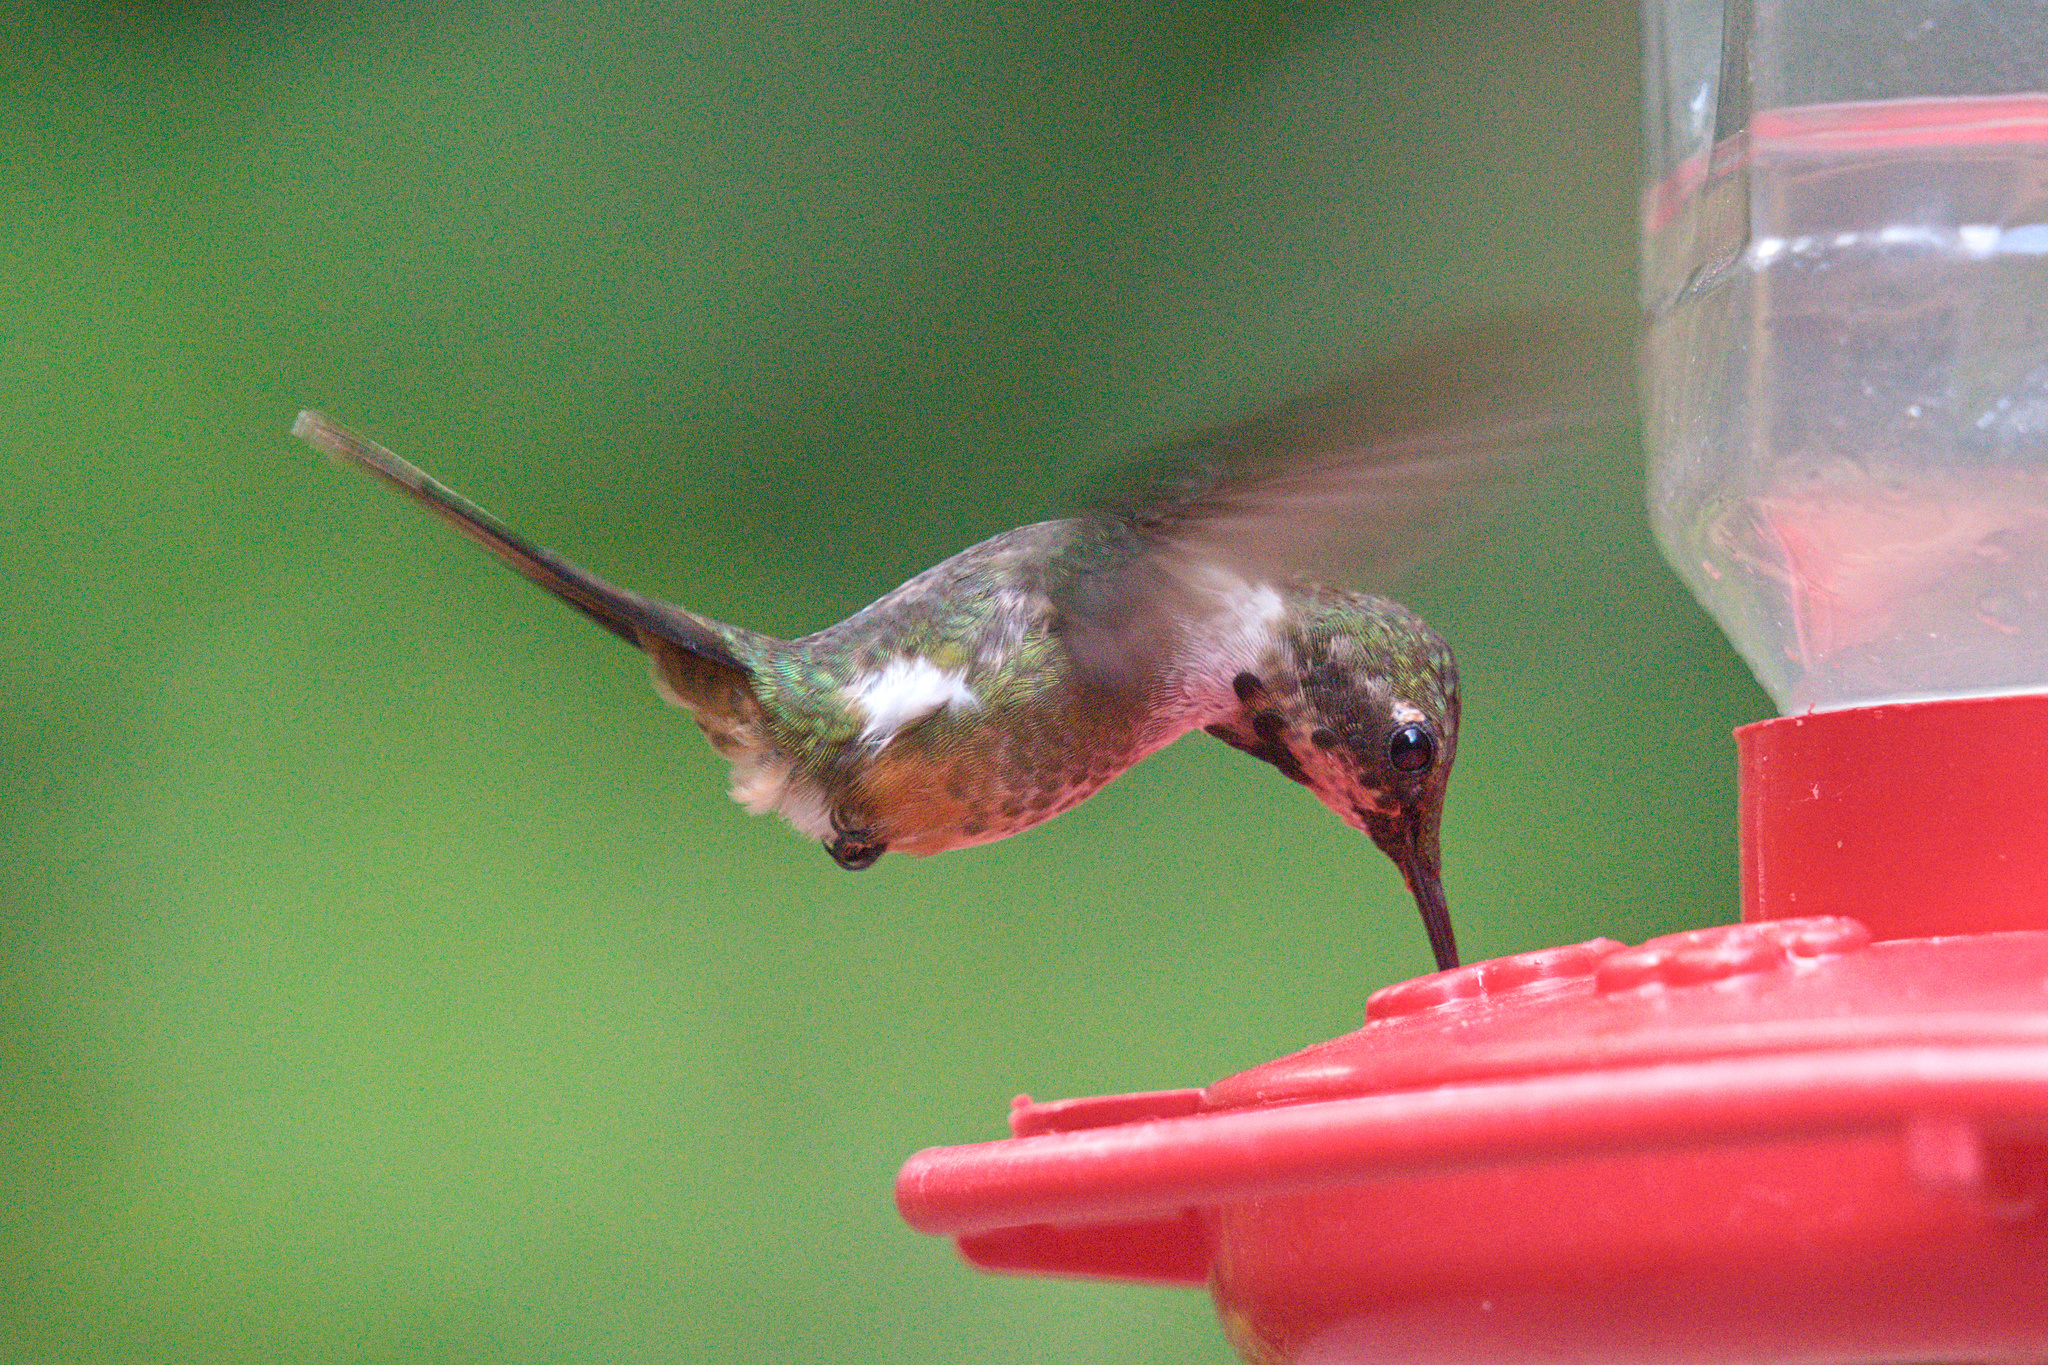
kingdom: Animalia
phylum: Chordata
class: Aves
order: Apodiformes
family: Trochilidae
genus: Calliphlox
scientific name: Calliphlox bryantae
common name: Magenta-throated woodstar
